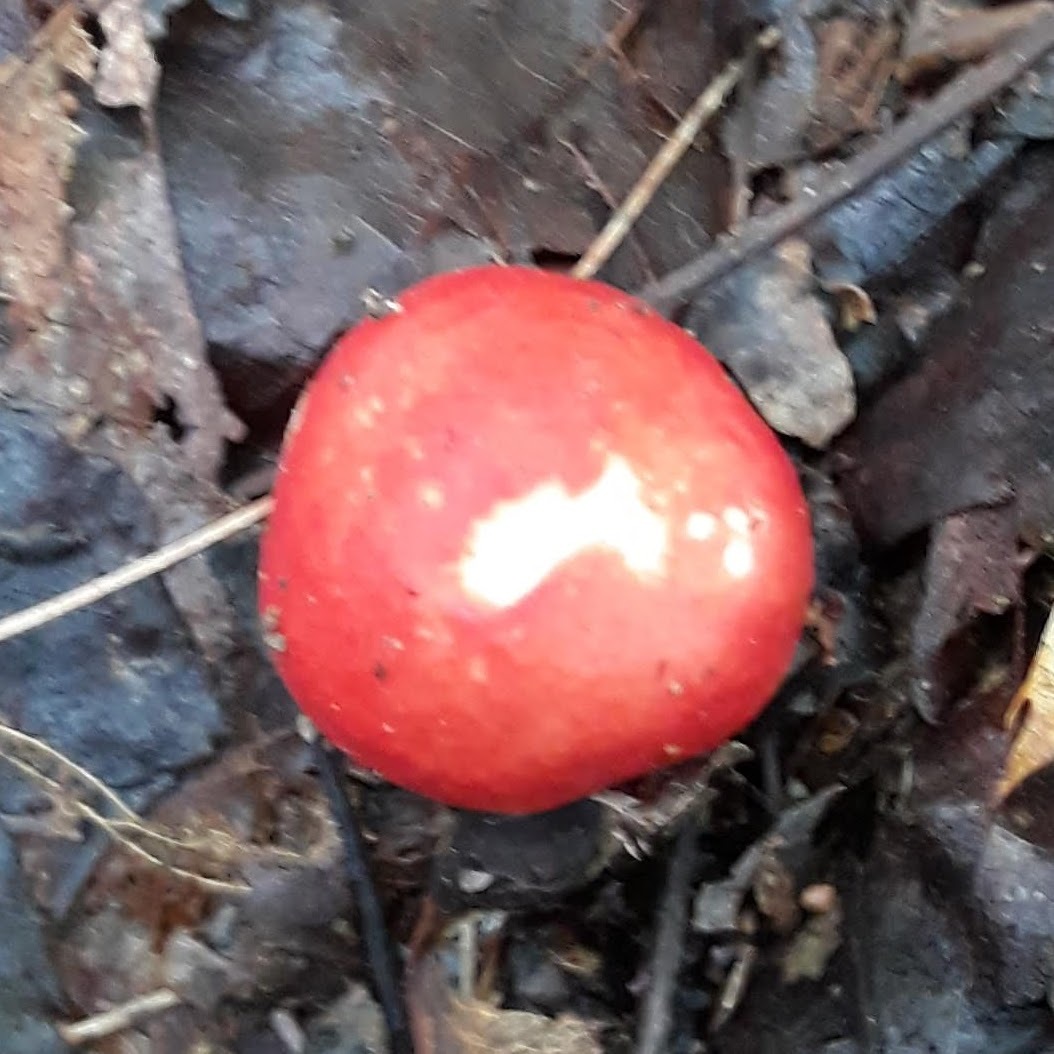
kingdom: Fungi
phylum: Basidiomycota
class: Agaricomycetes
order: Russulales
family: Russulaceae
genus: Russula
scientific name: Russula
